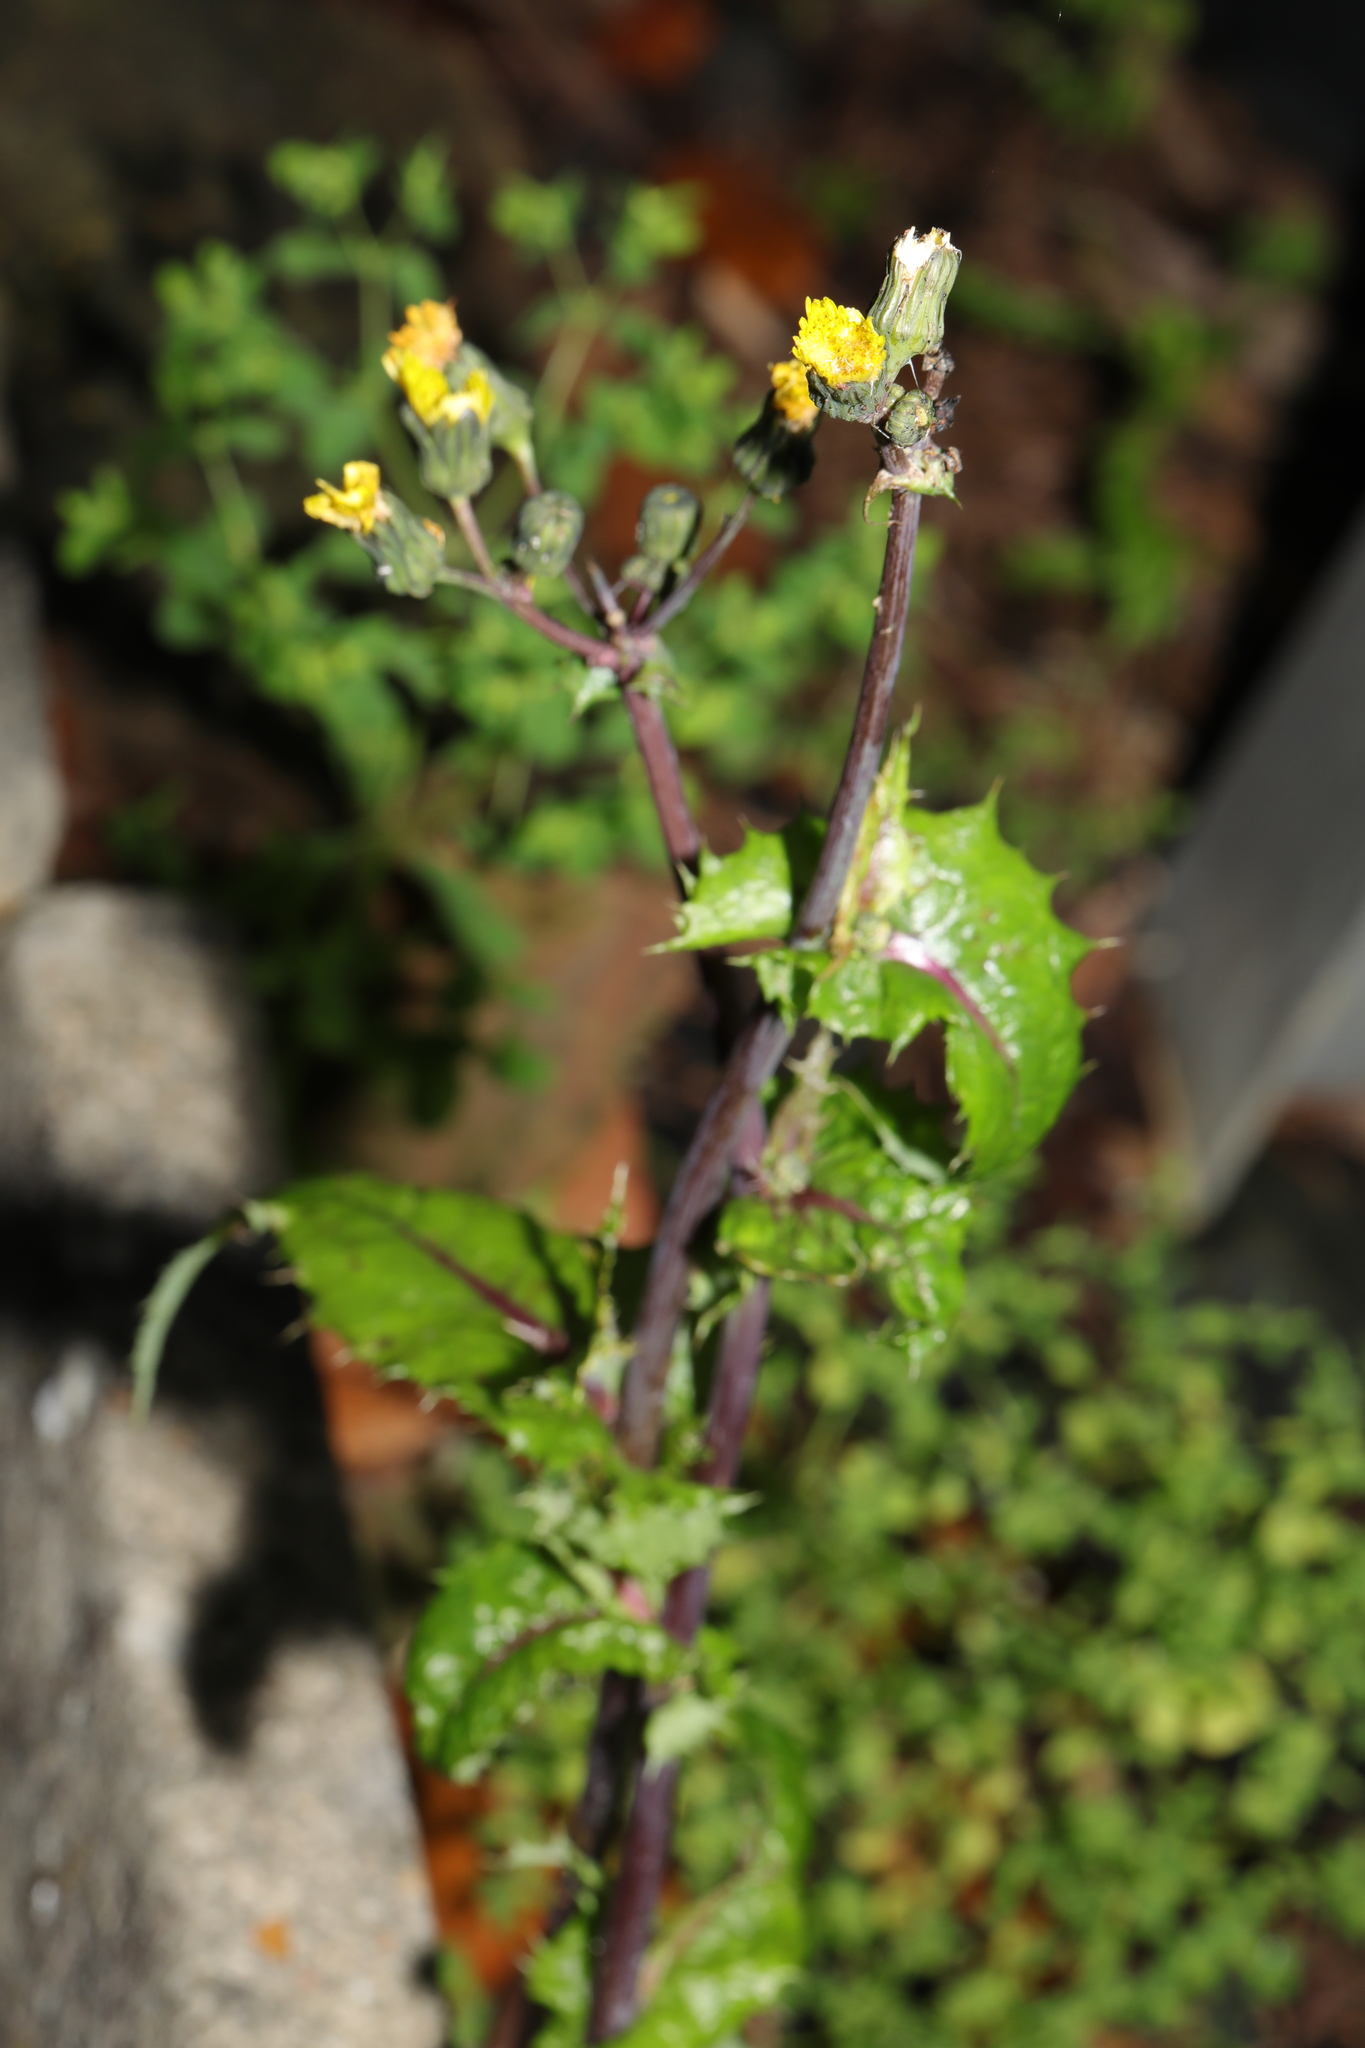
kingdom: Plantae
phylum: Tracheophyta
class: Magnoliopsida
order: Asterales
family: Asteraceae
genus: Sonchus
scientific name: Sonchus asper
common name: Prickly sow-thistle
